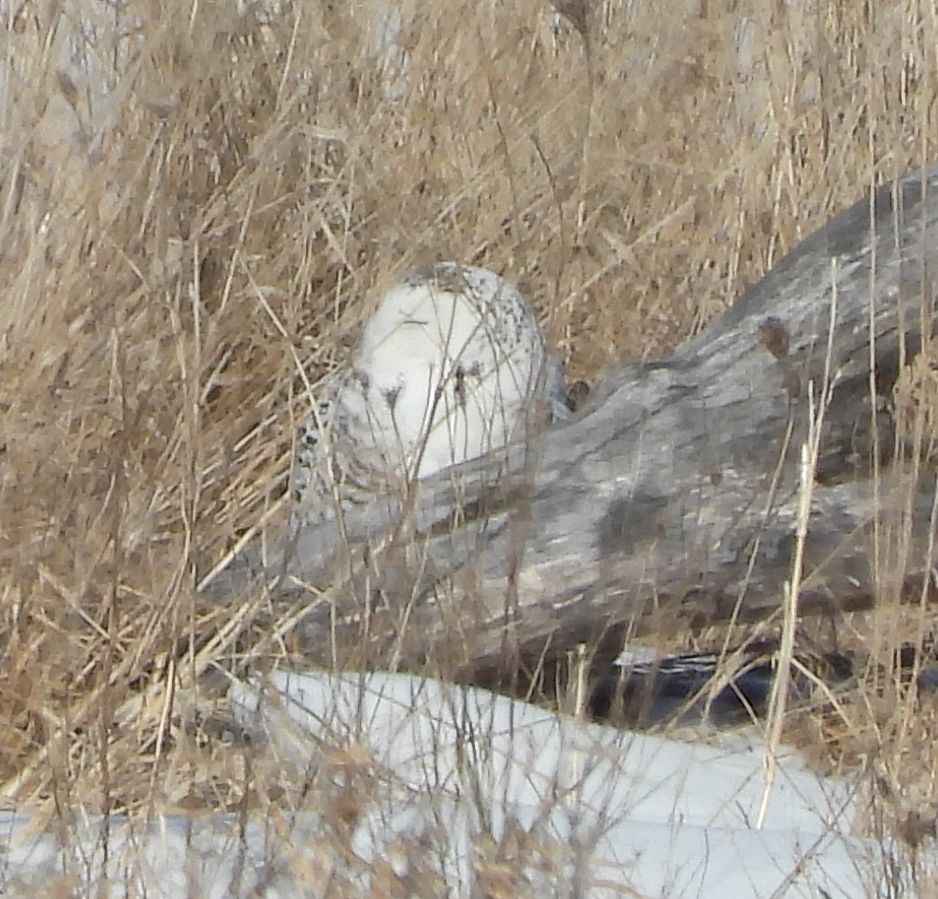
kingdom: Animalia
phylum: Chordata
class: Aves
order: Strigiformes
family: Strigidae
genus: Bubo
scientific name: Bubo scandiacus
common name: Snowy owl
